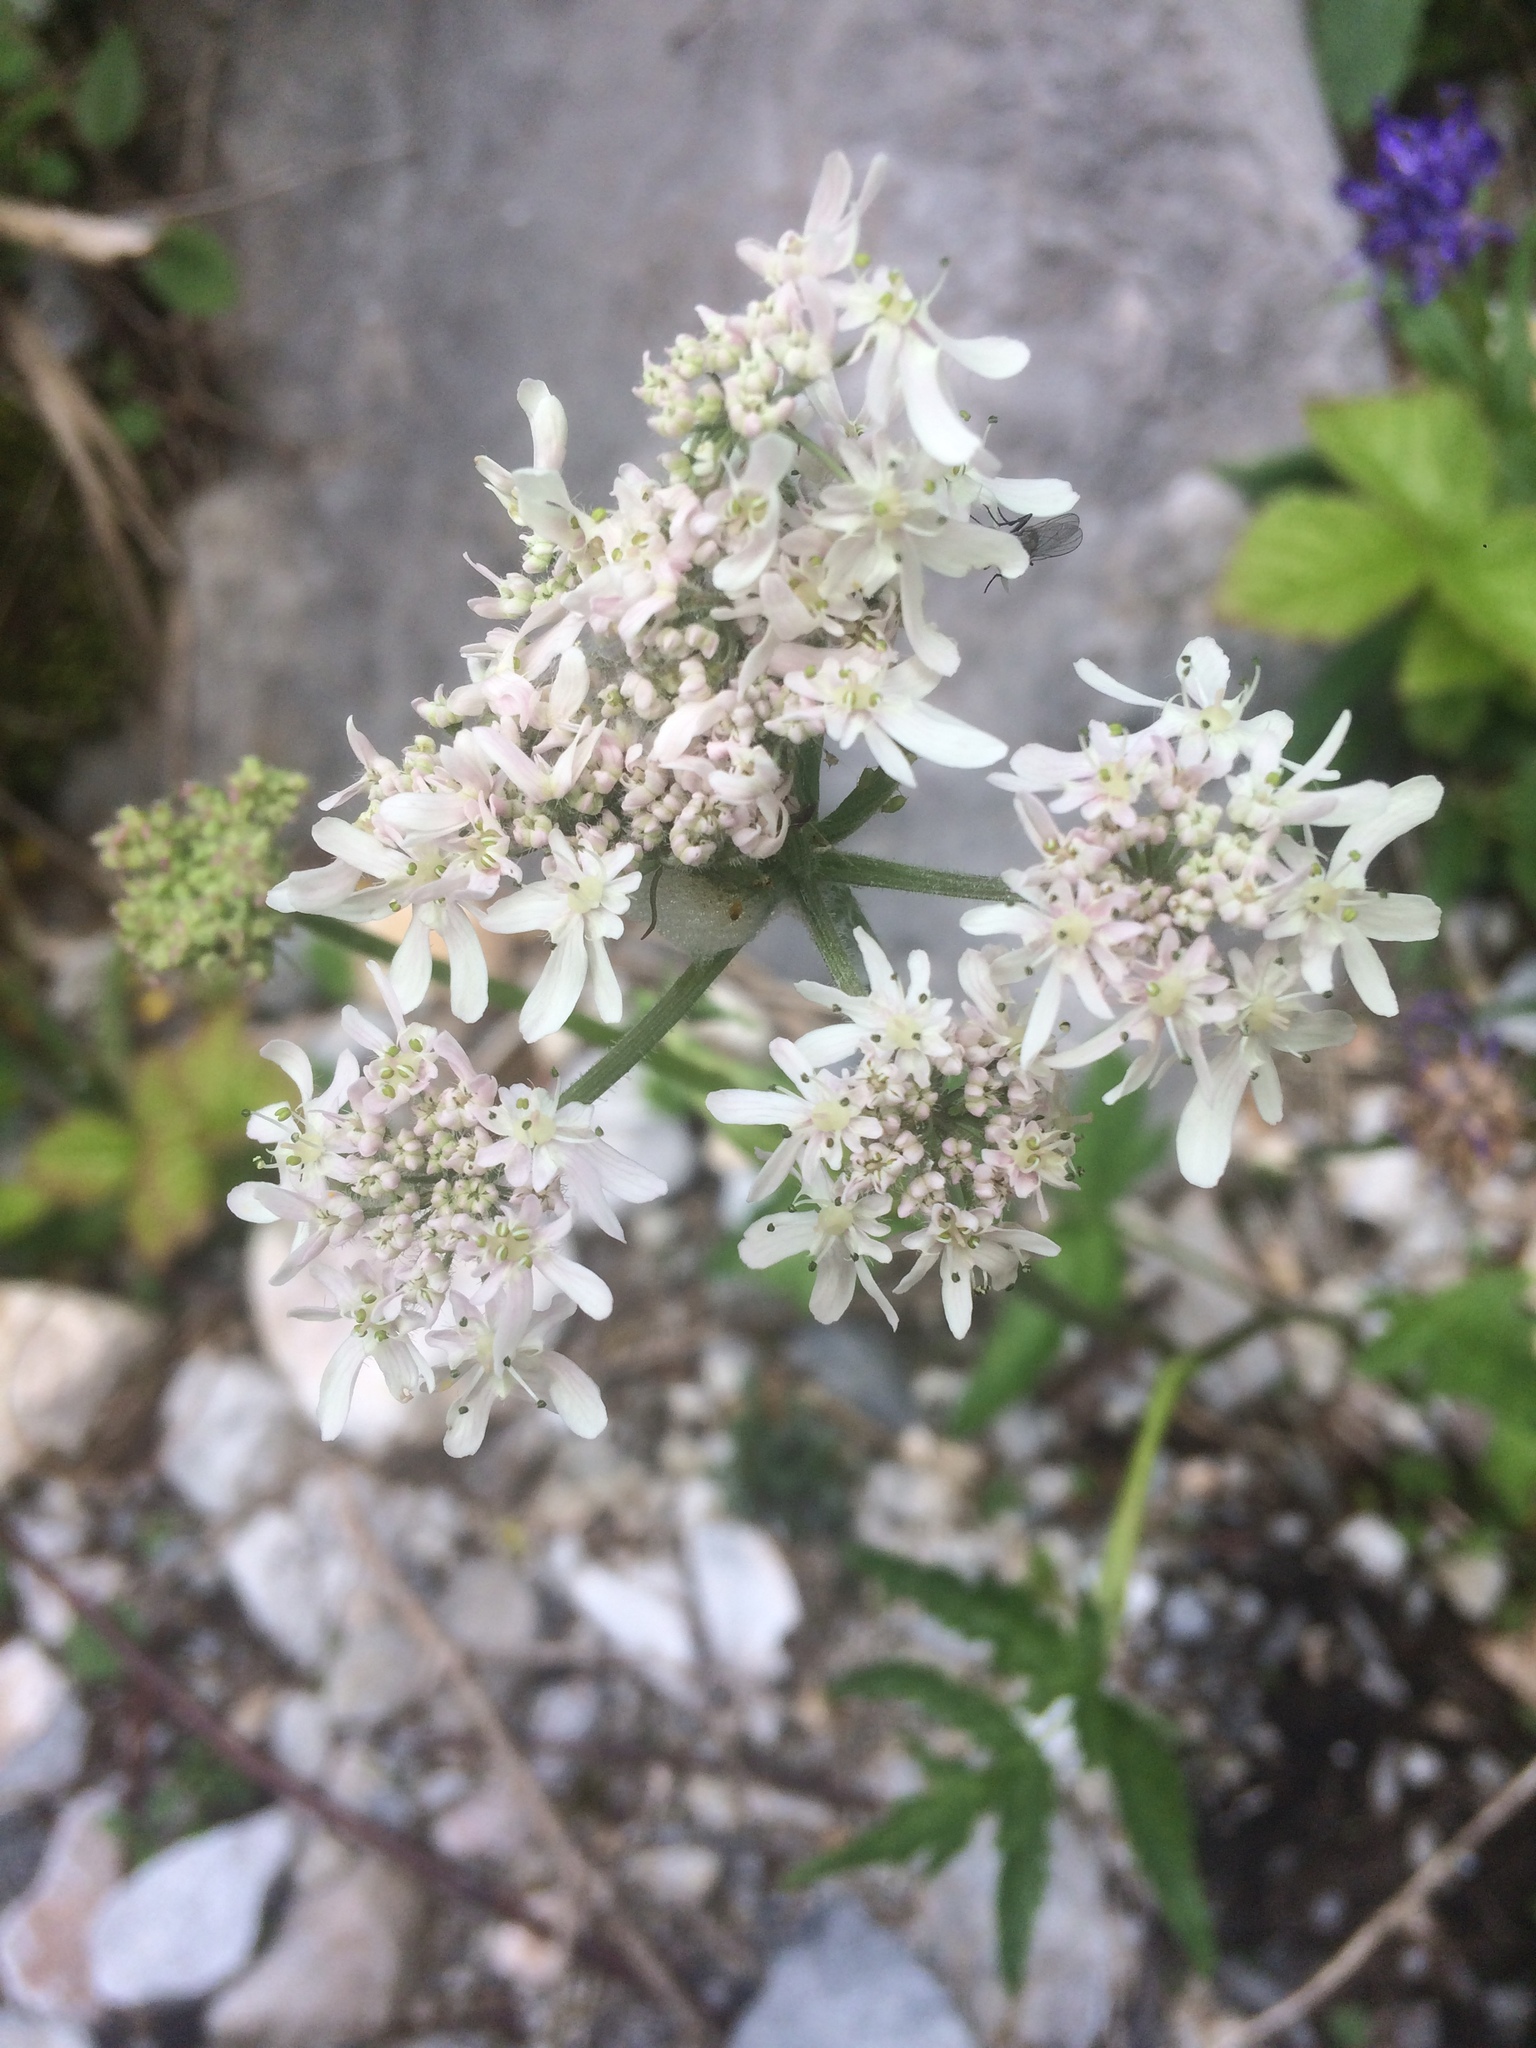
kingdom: Plantae
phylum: Tracheophyta
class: Magnoliopsida
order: Apiales
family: Apiaceae
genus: Heracleum
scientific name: Heracleum austriacum
